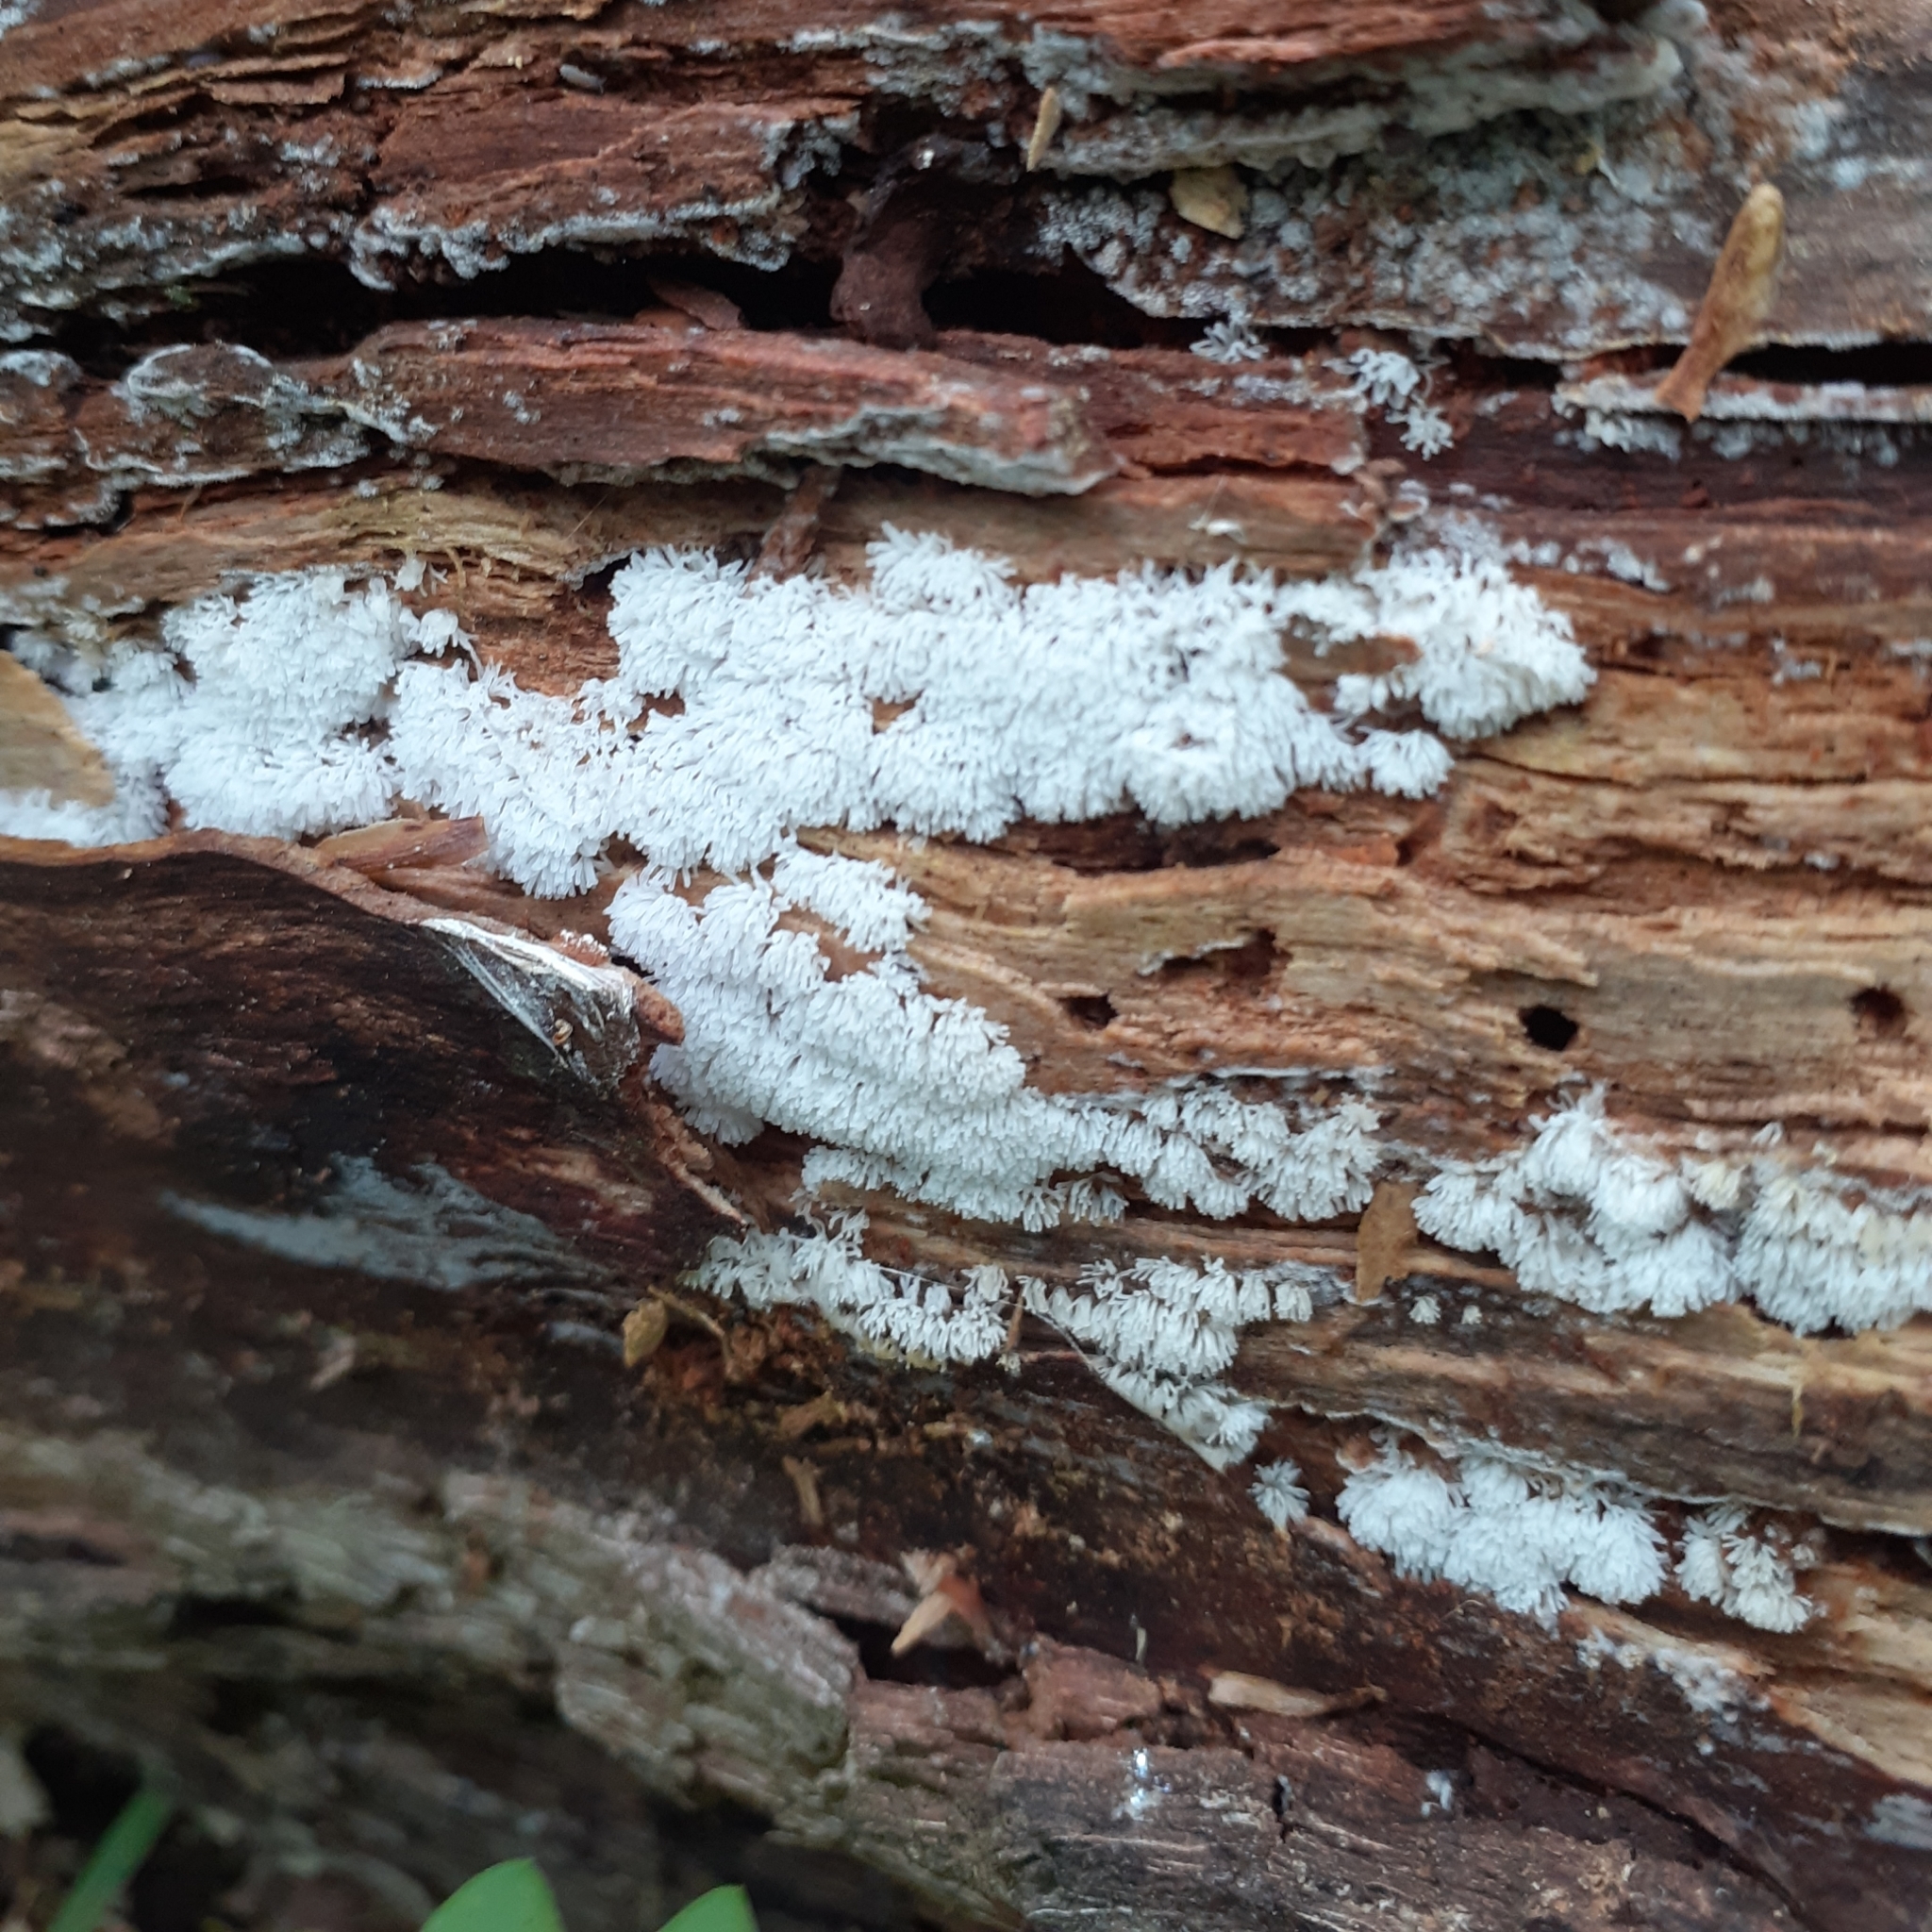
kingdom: Protozoa
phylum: Mycetozoa
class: Protosteliomycetes
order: Ceratiomyxales
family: Ceratiomyxaceae
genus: Ceratiomyxa
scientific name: Ceratiomyxa fruticulosa
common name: Honeycomb coral slime mold
